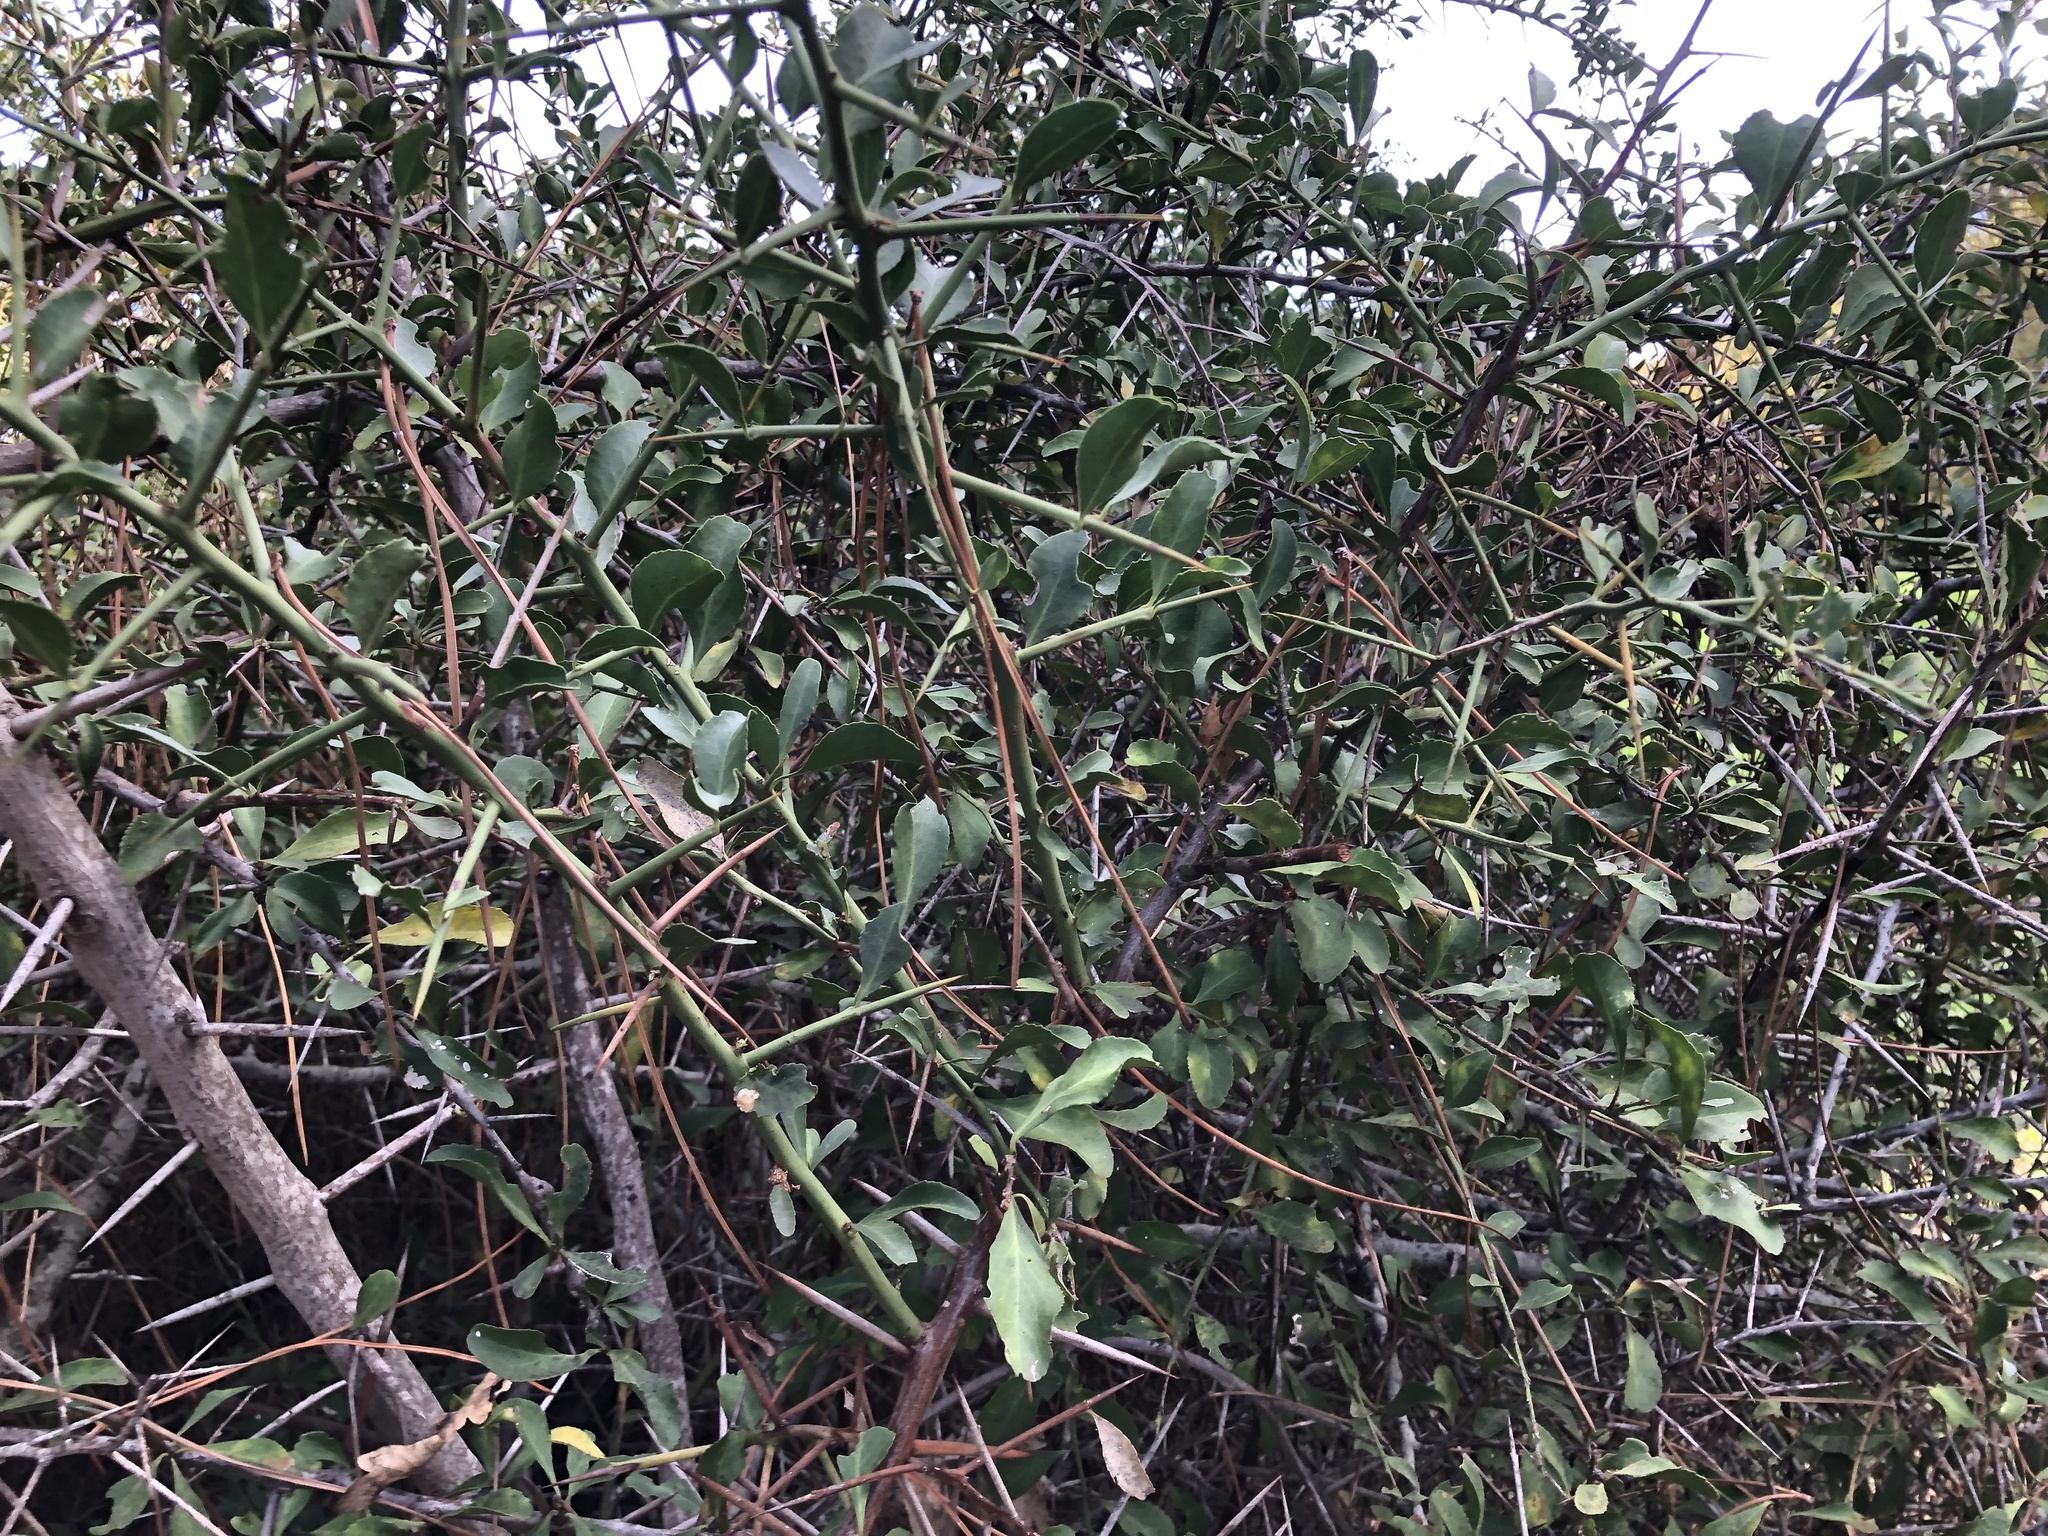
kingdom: Plantae
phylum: Tracheophyta
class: Magnoliopsida
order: Celastrales
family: Celastraceae
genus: Gymnosporia
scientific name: Gymnosporia buxifolia
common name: Common spike-thorn
